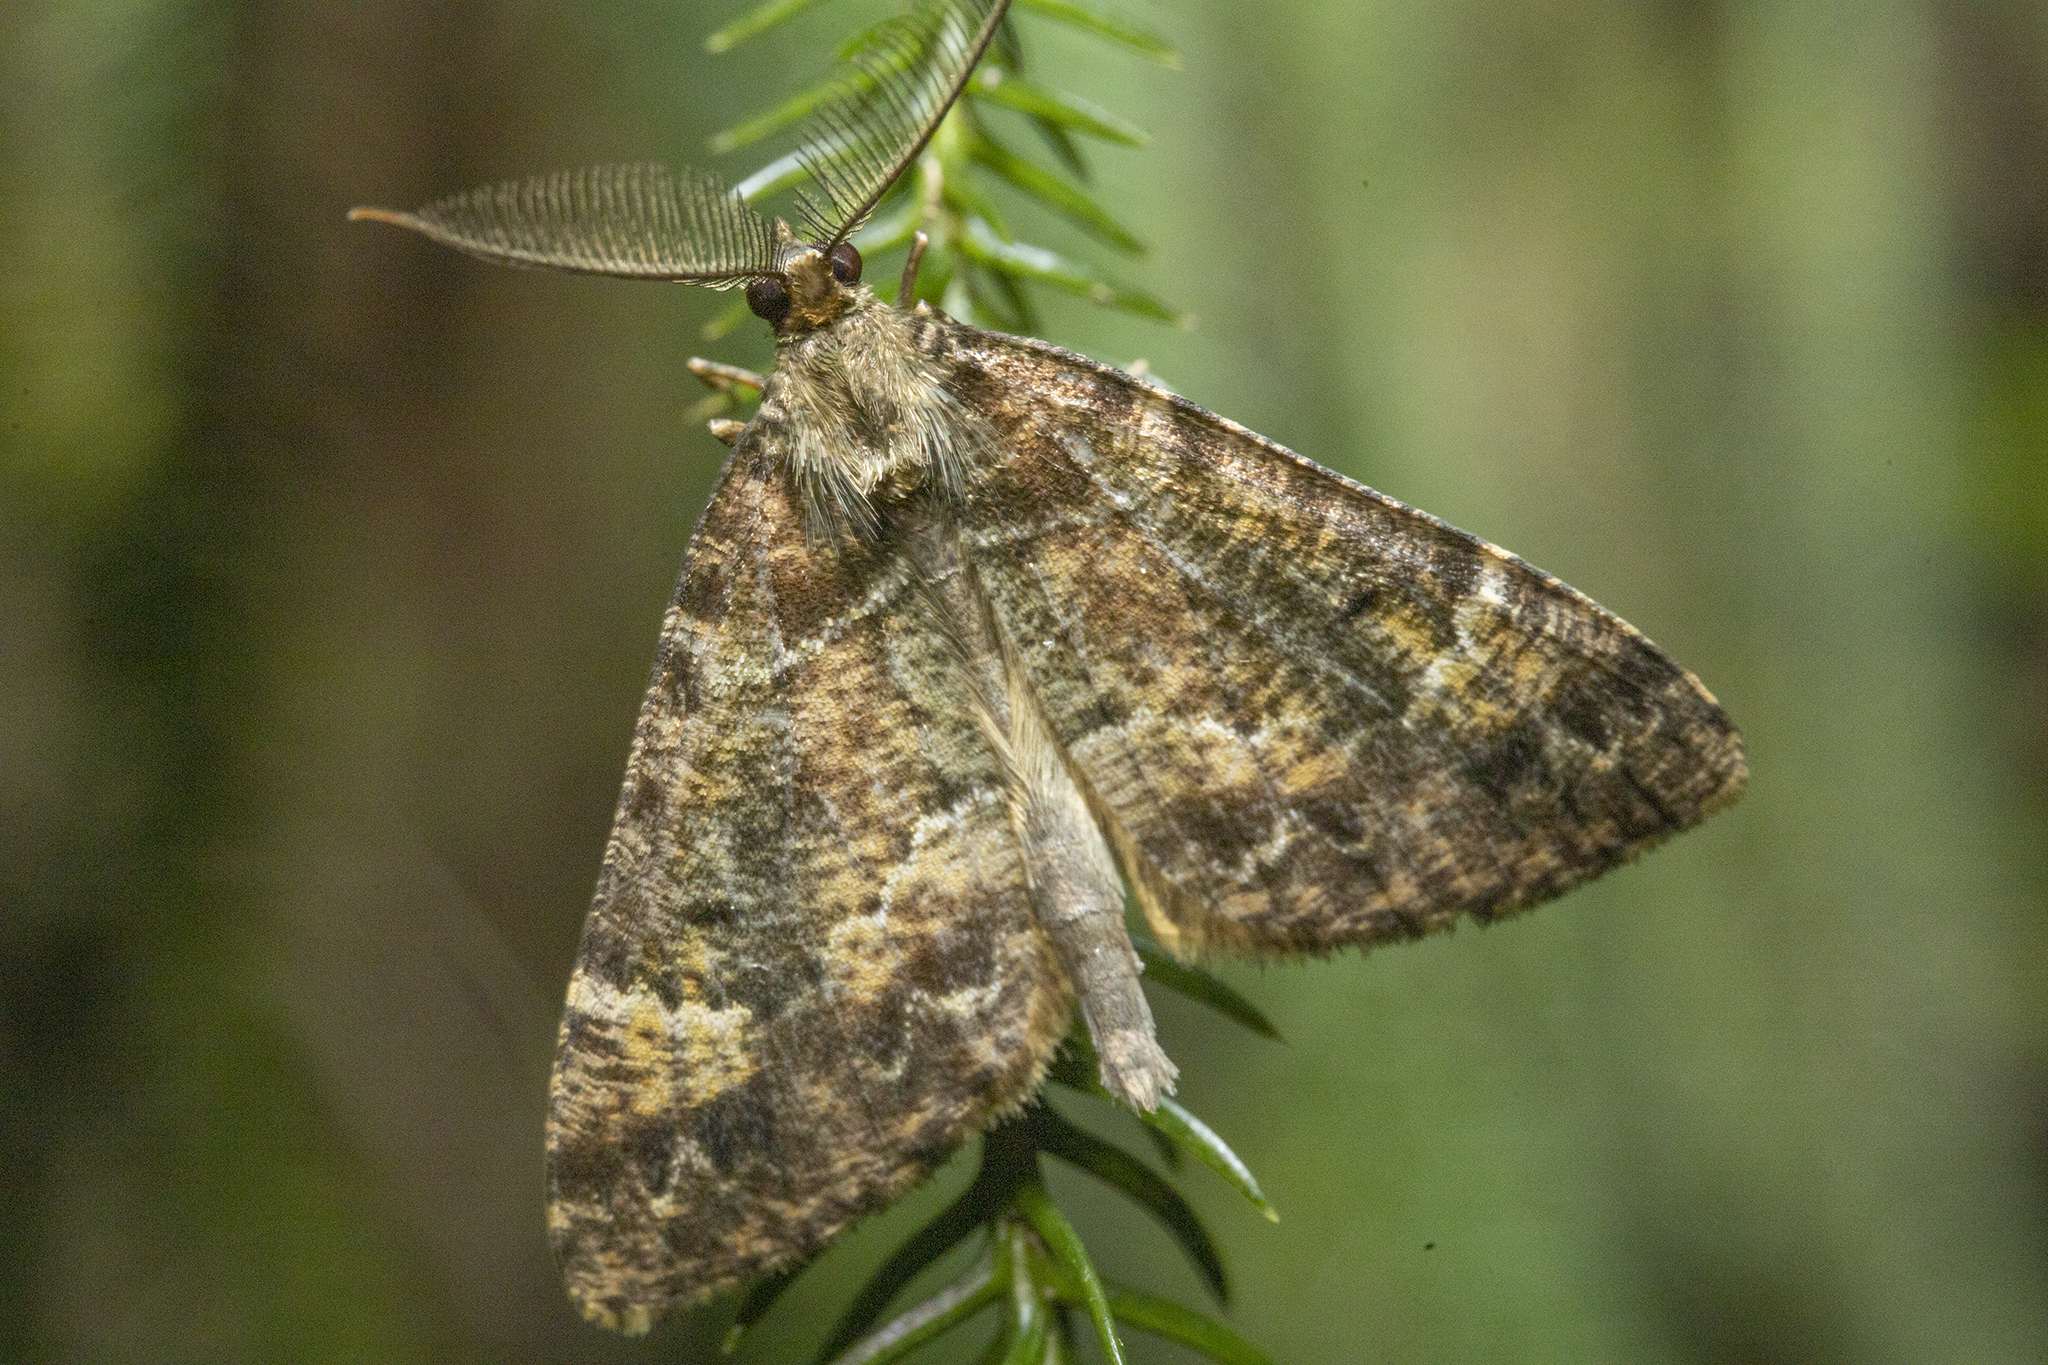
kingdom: Animalia
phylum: Arthropoda
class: Insecta
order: Lepidoptera
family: Geometridae
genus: Pseudocoremia
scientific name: Pseudocoremia productata
